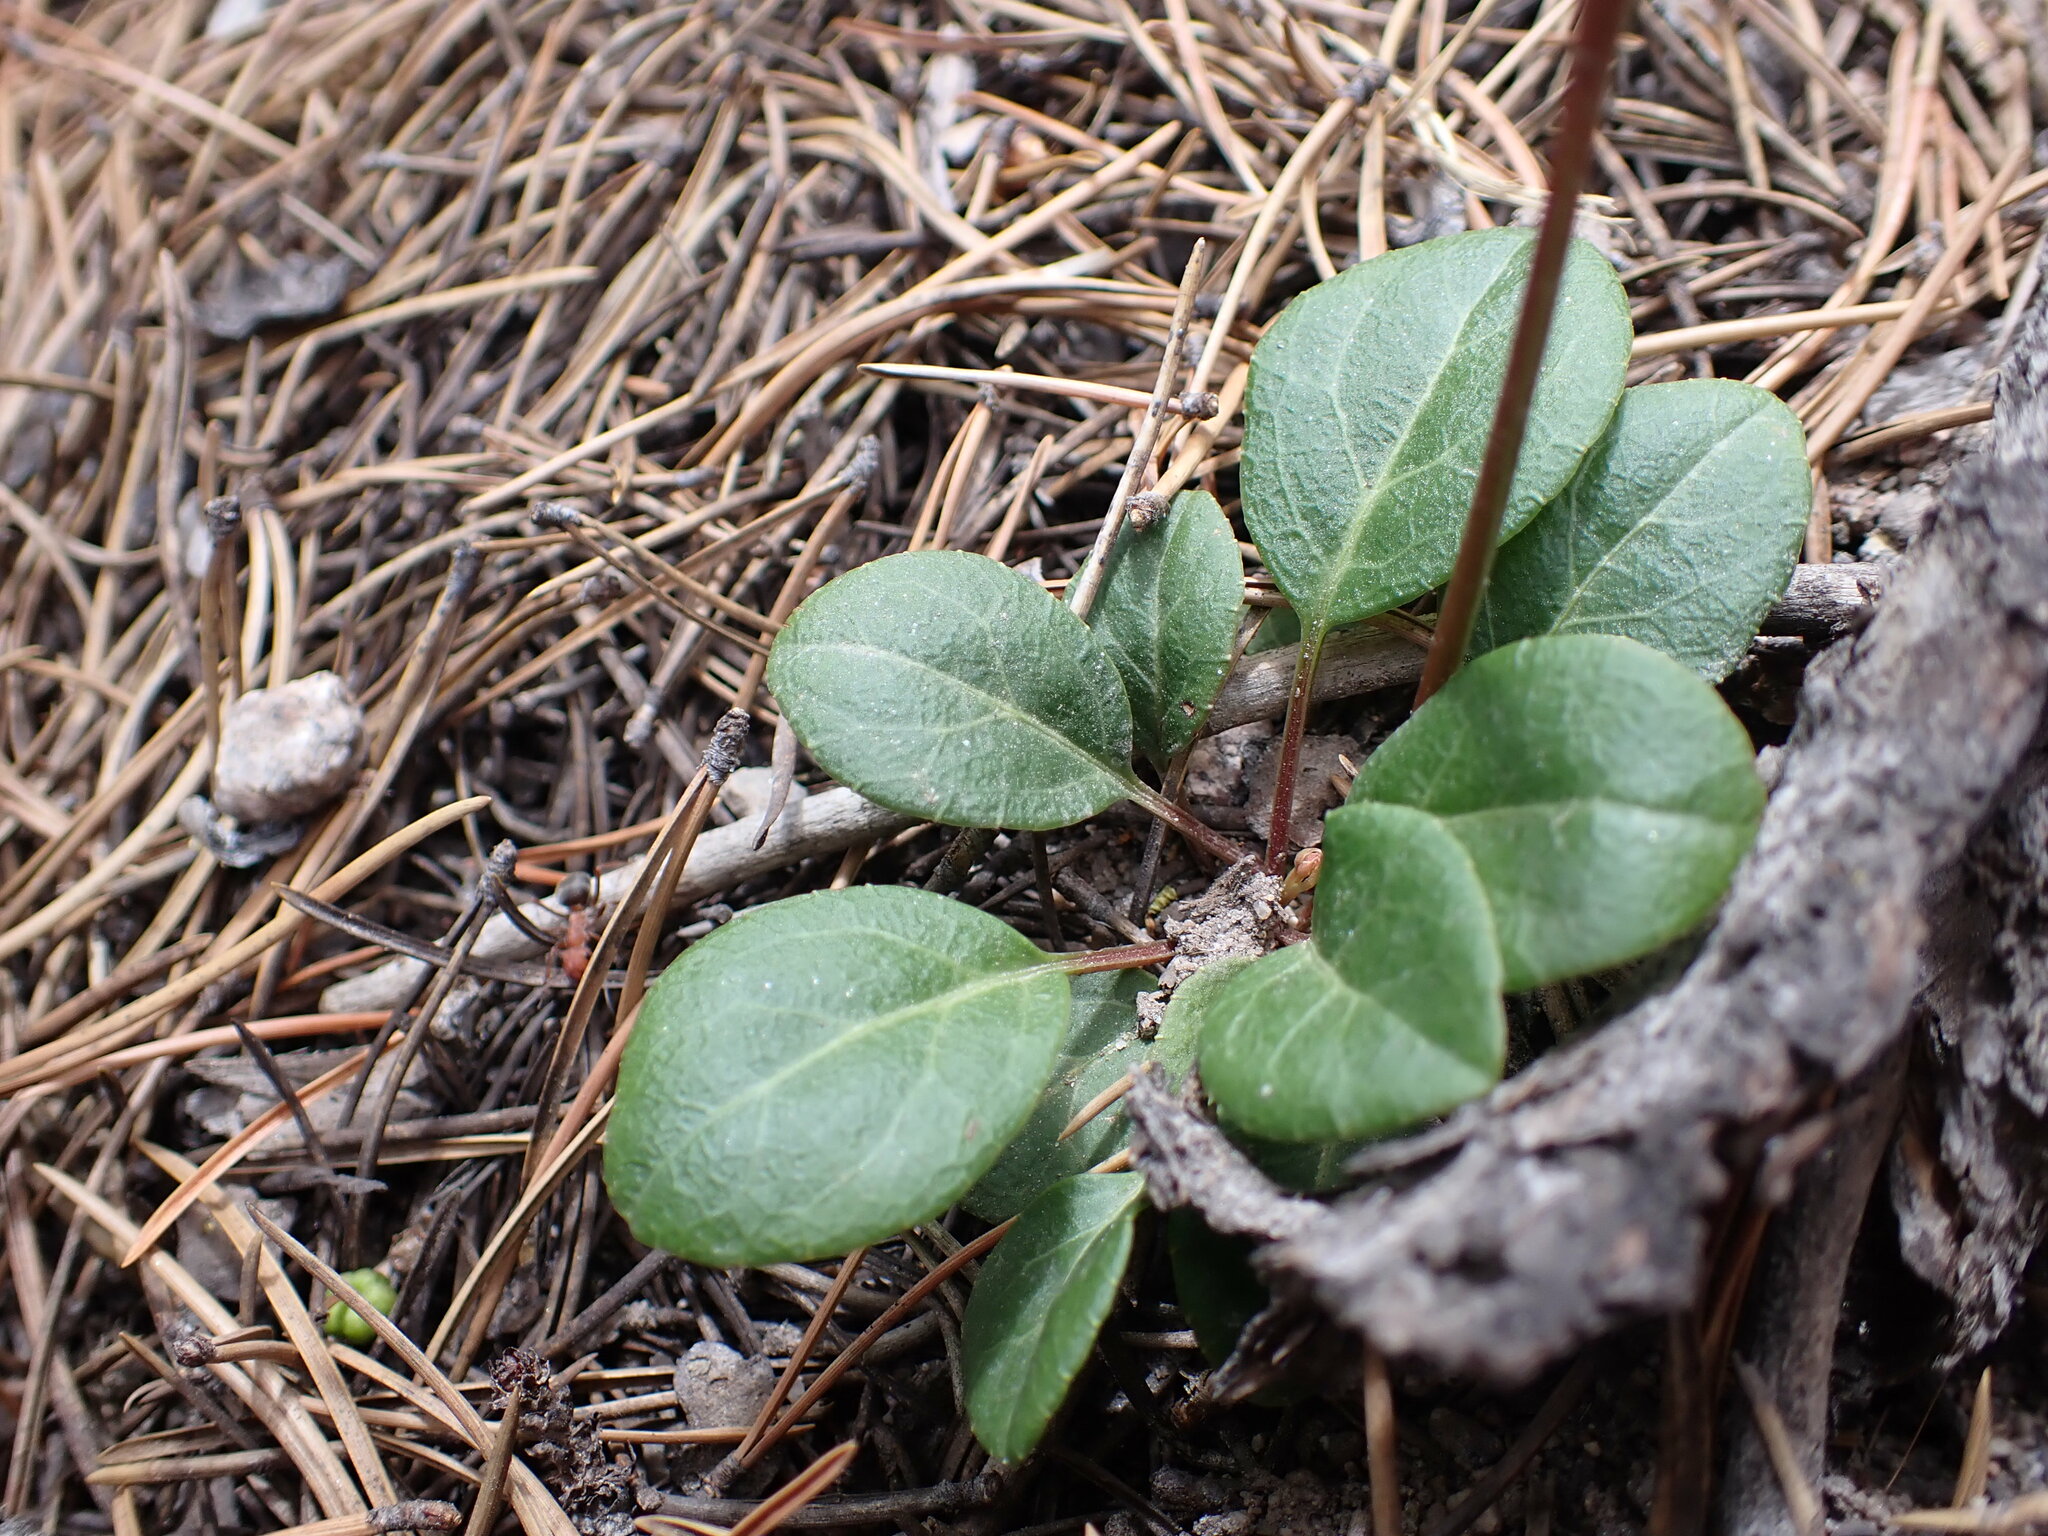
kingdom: Plantae
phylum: Tracheophyta
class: Magnoliopsida
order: Ericales
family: Ericaceae
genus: Pyrola
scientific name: Pyrola chlorantha
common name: Green wintergreen
